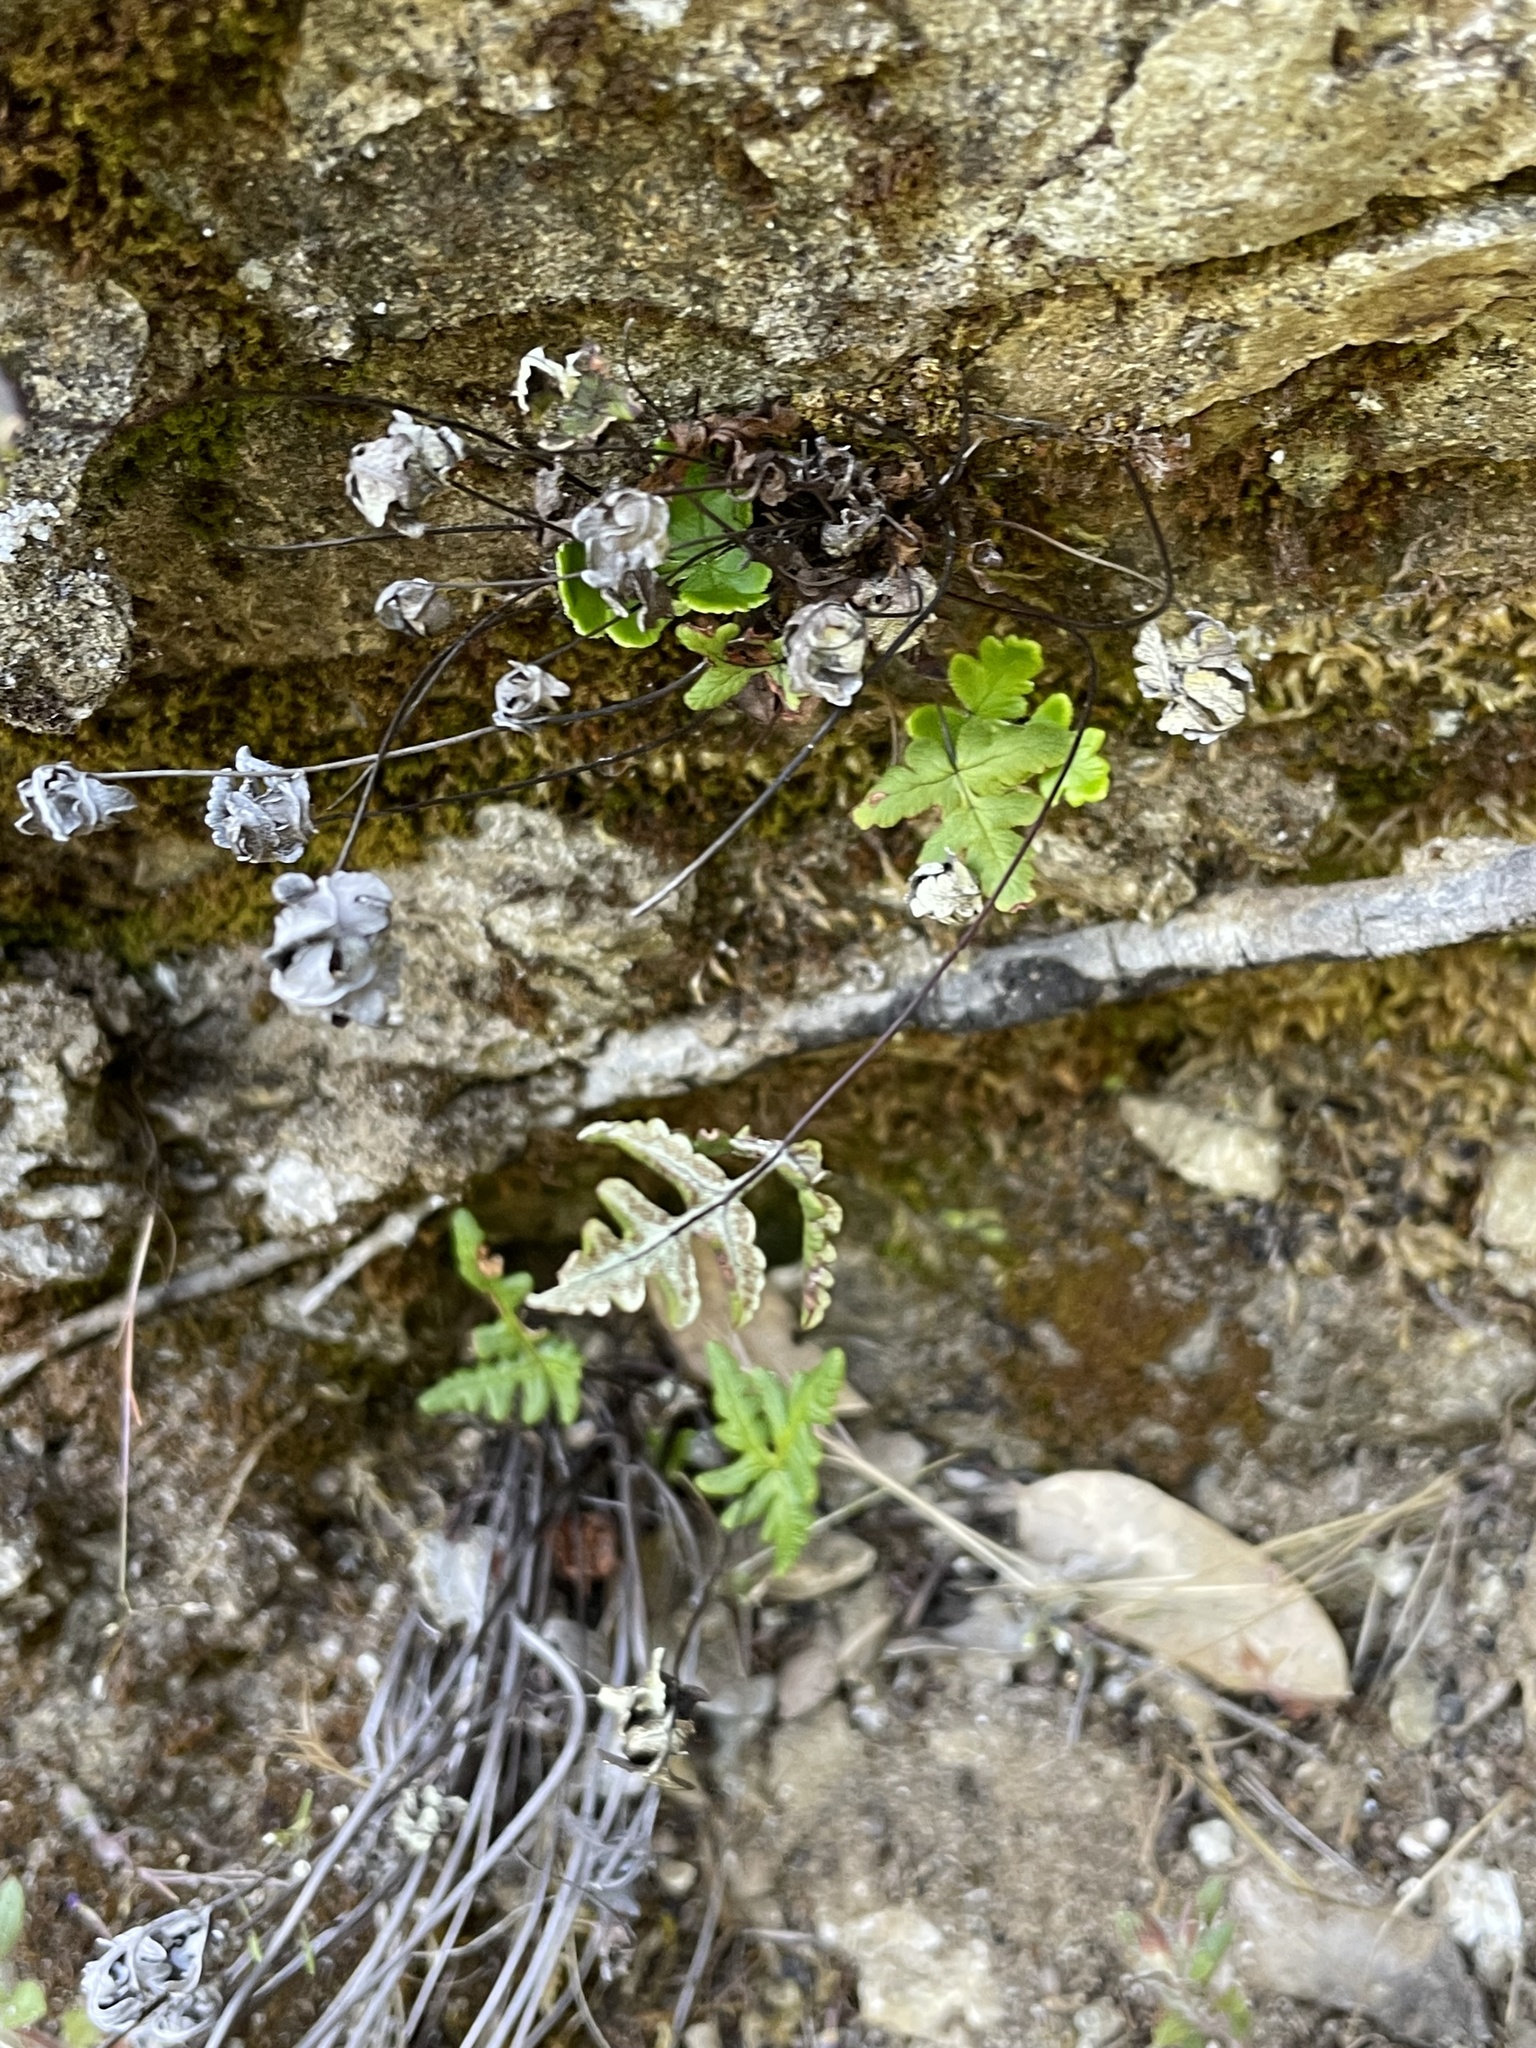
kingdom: Plantae
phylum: Tracheophyta
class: Polypodiopsida
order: Polypodiales
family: Pteridaceae
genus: Pentagramma
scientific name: Pentagramma triangularis
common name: Gold fern
